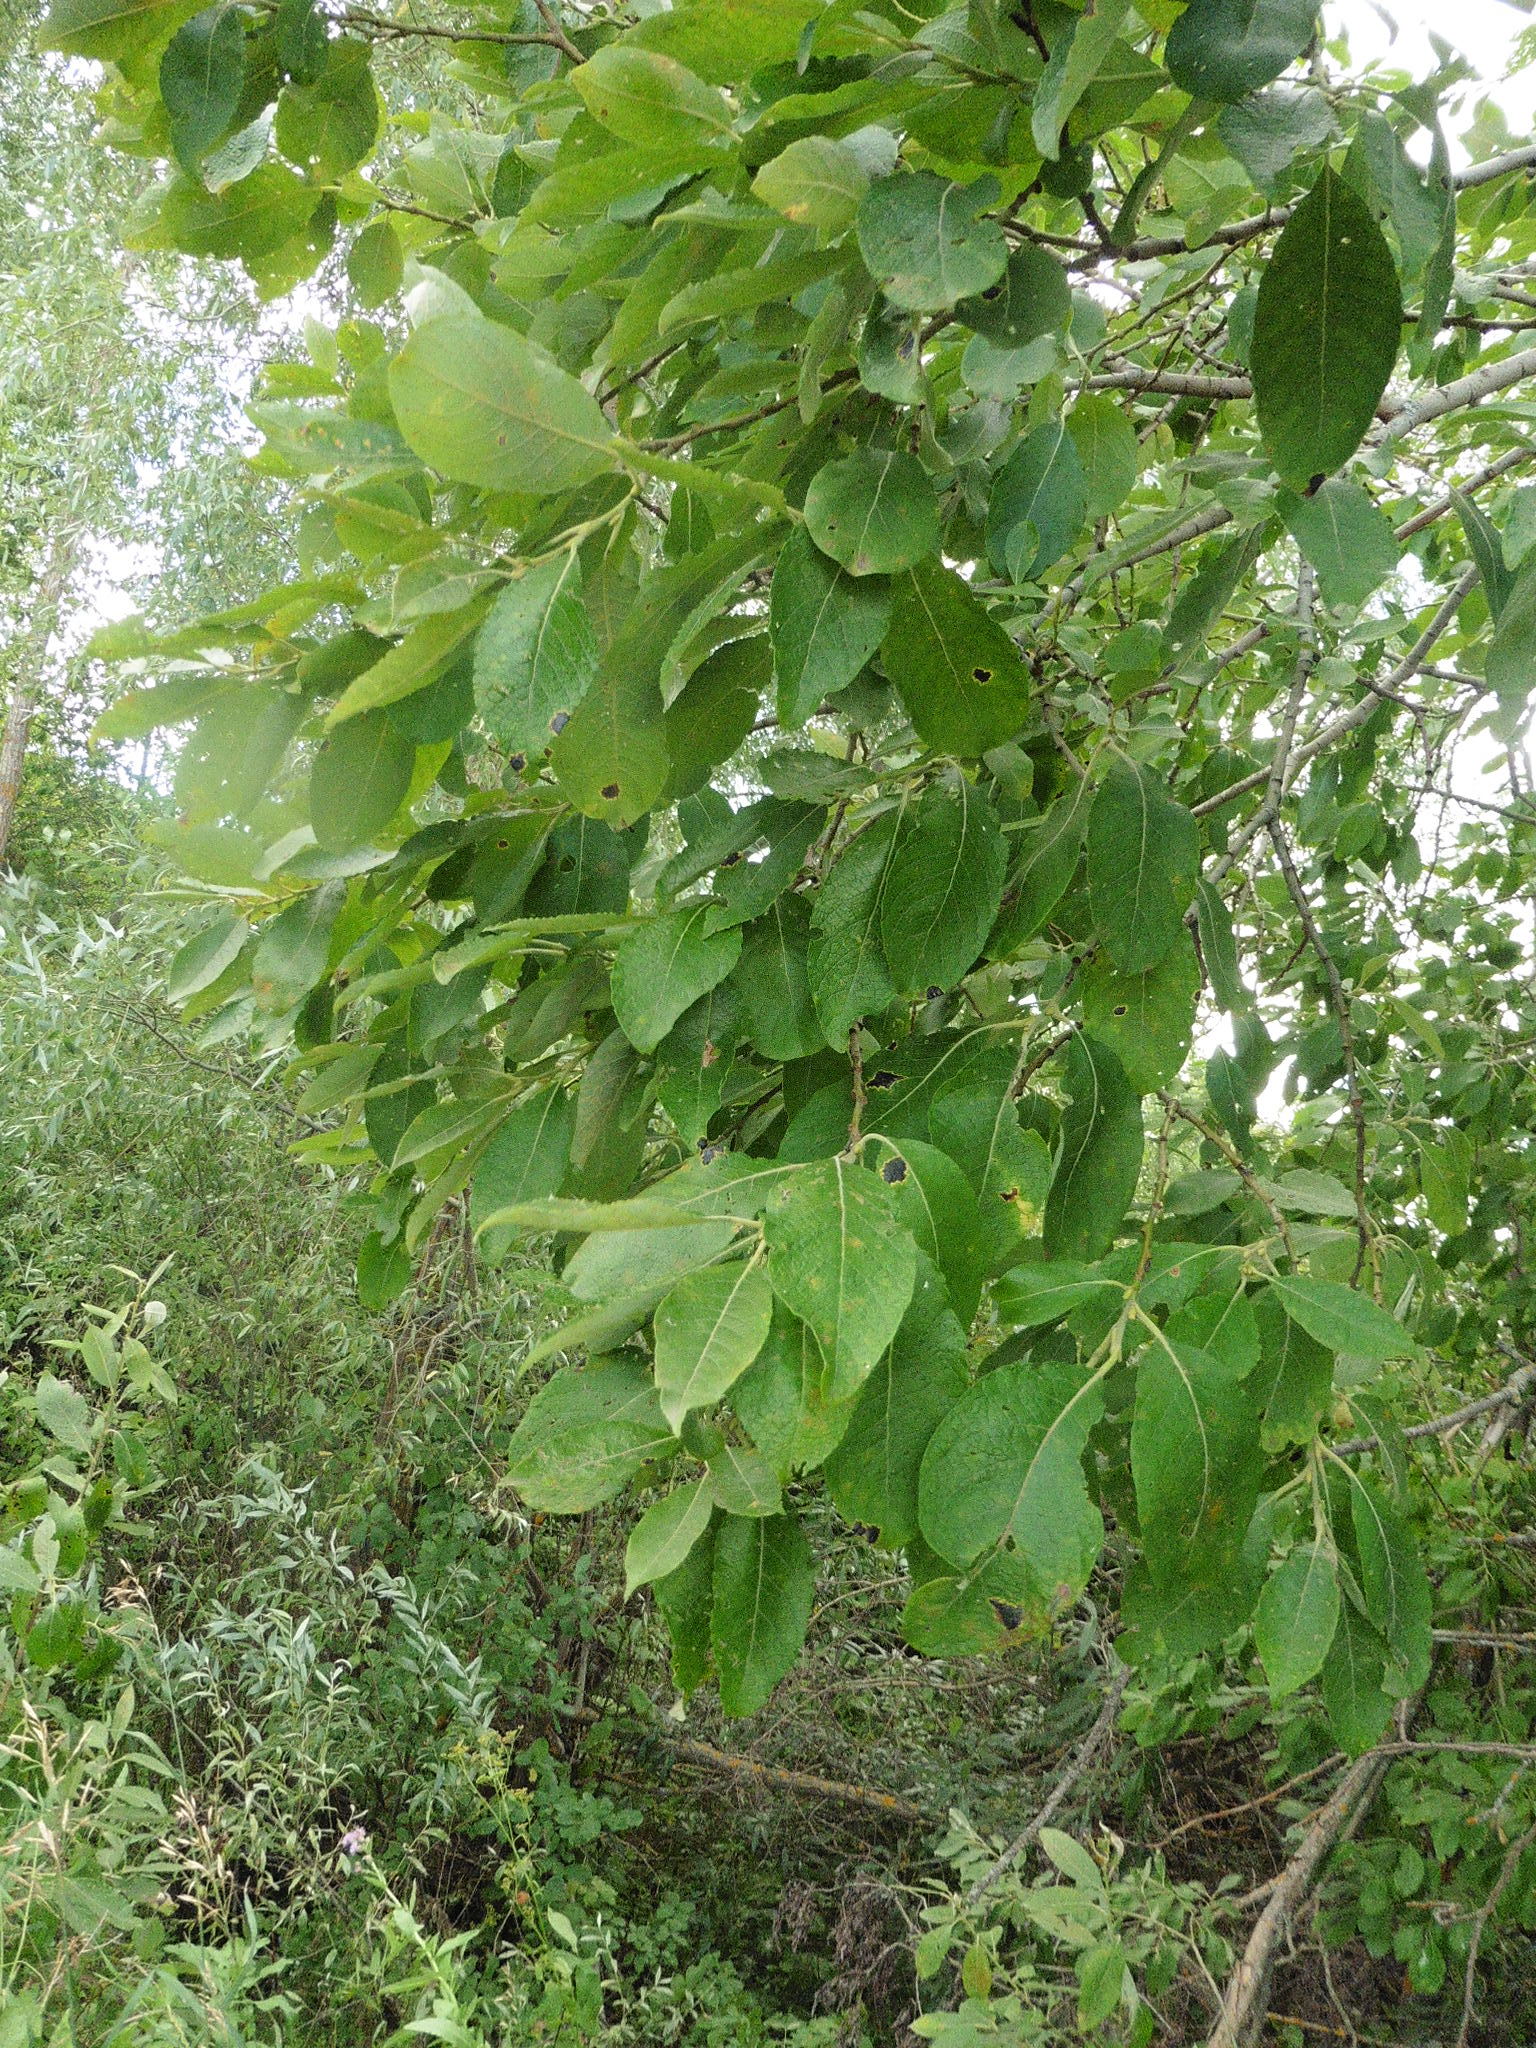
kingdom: Plantae
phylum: Tracheophyta
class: Magnoliopsida
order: Malpighiales
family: Salicaceae
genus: Salix
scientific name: Salix caprea
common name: Goat willow
